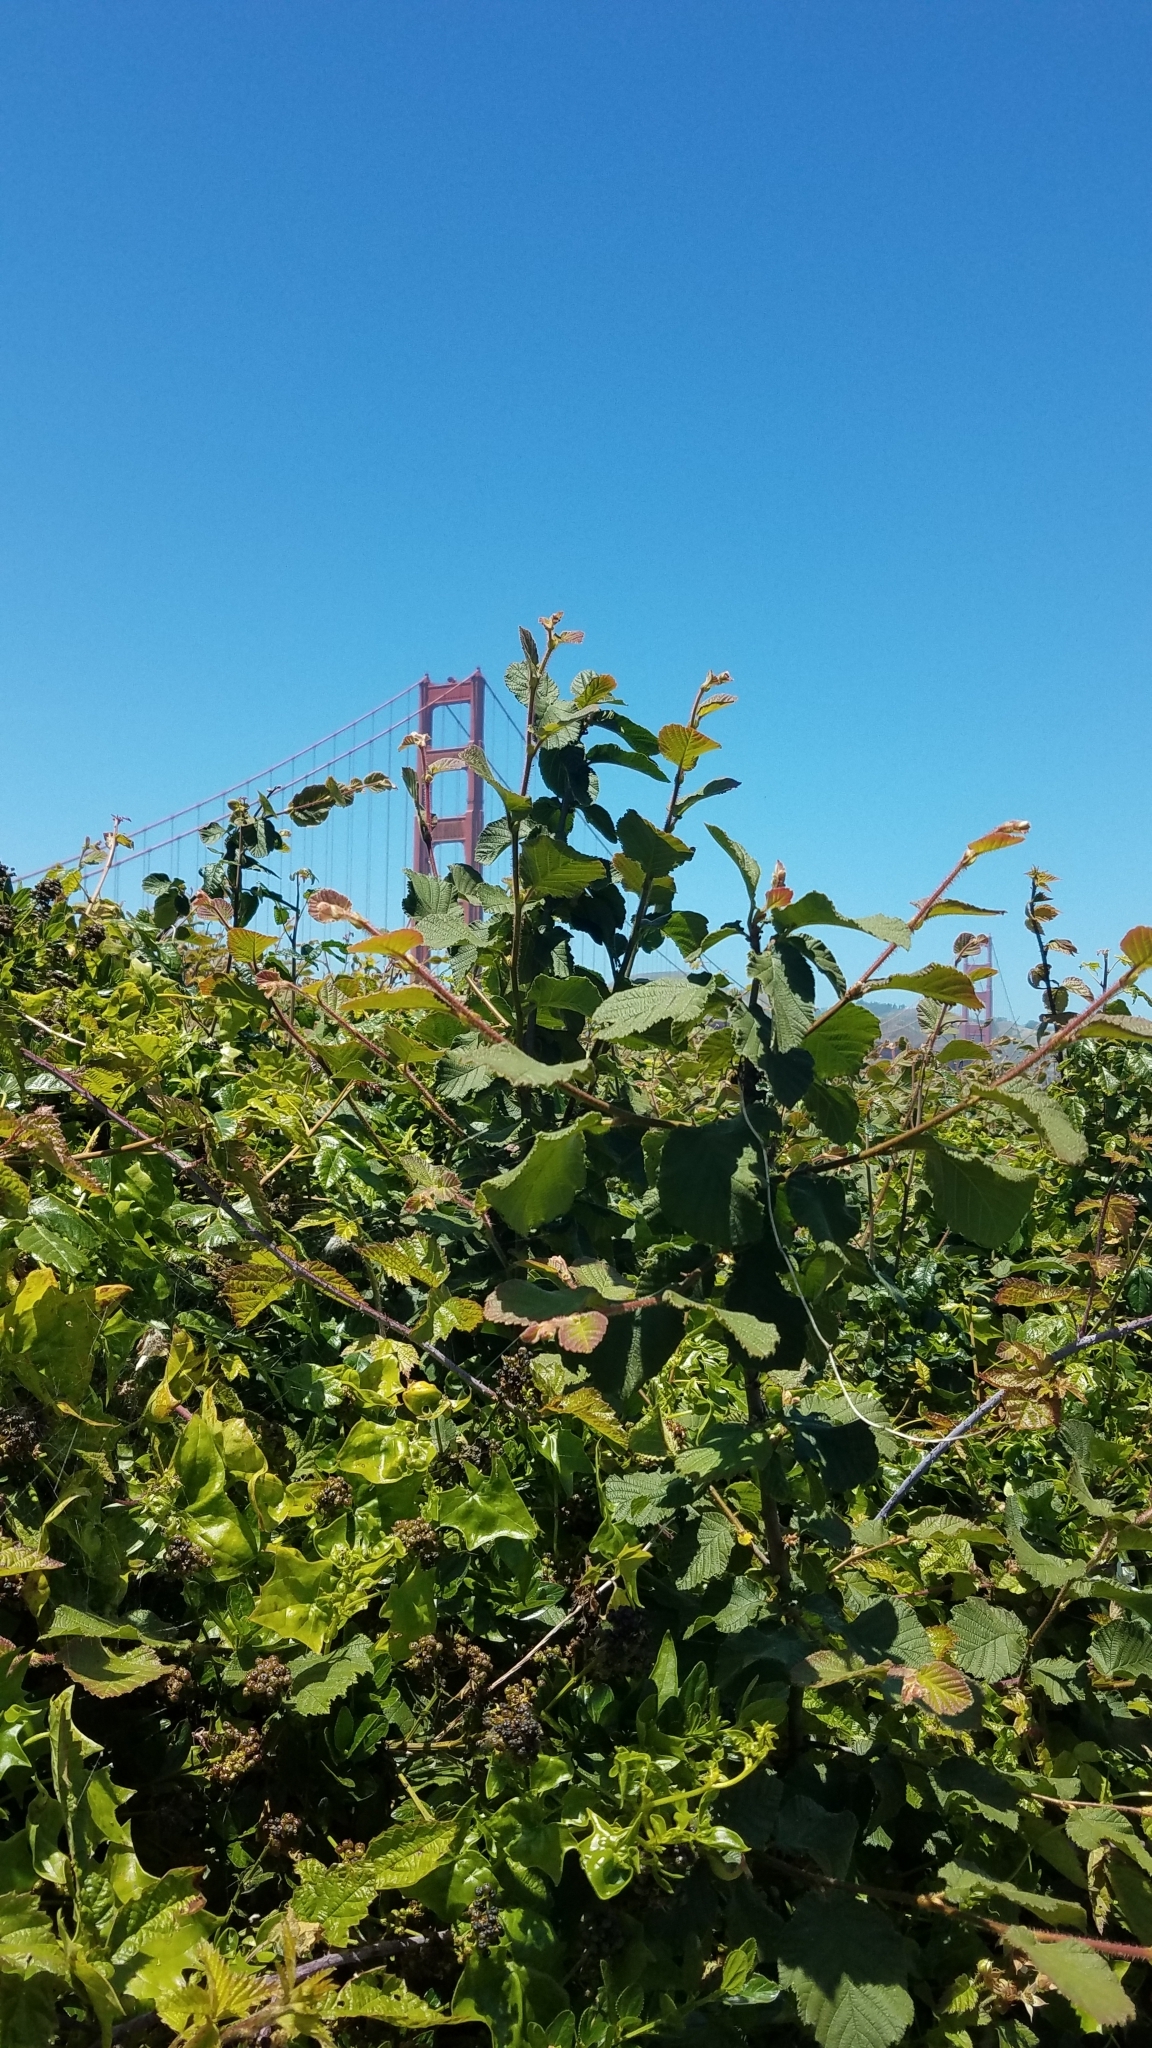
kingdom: Plantae
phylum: Tracheophyta
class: Magnoliopsida
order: Fagales
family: Betulaceae
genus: Corylus
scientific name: Corylus cornuta
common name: Beaked hazel
